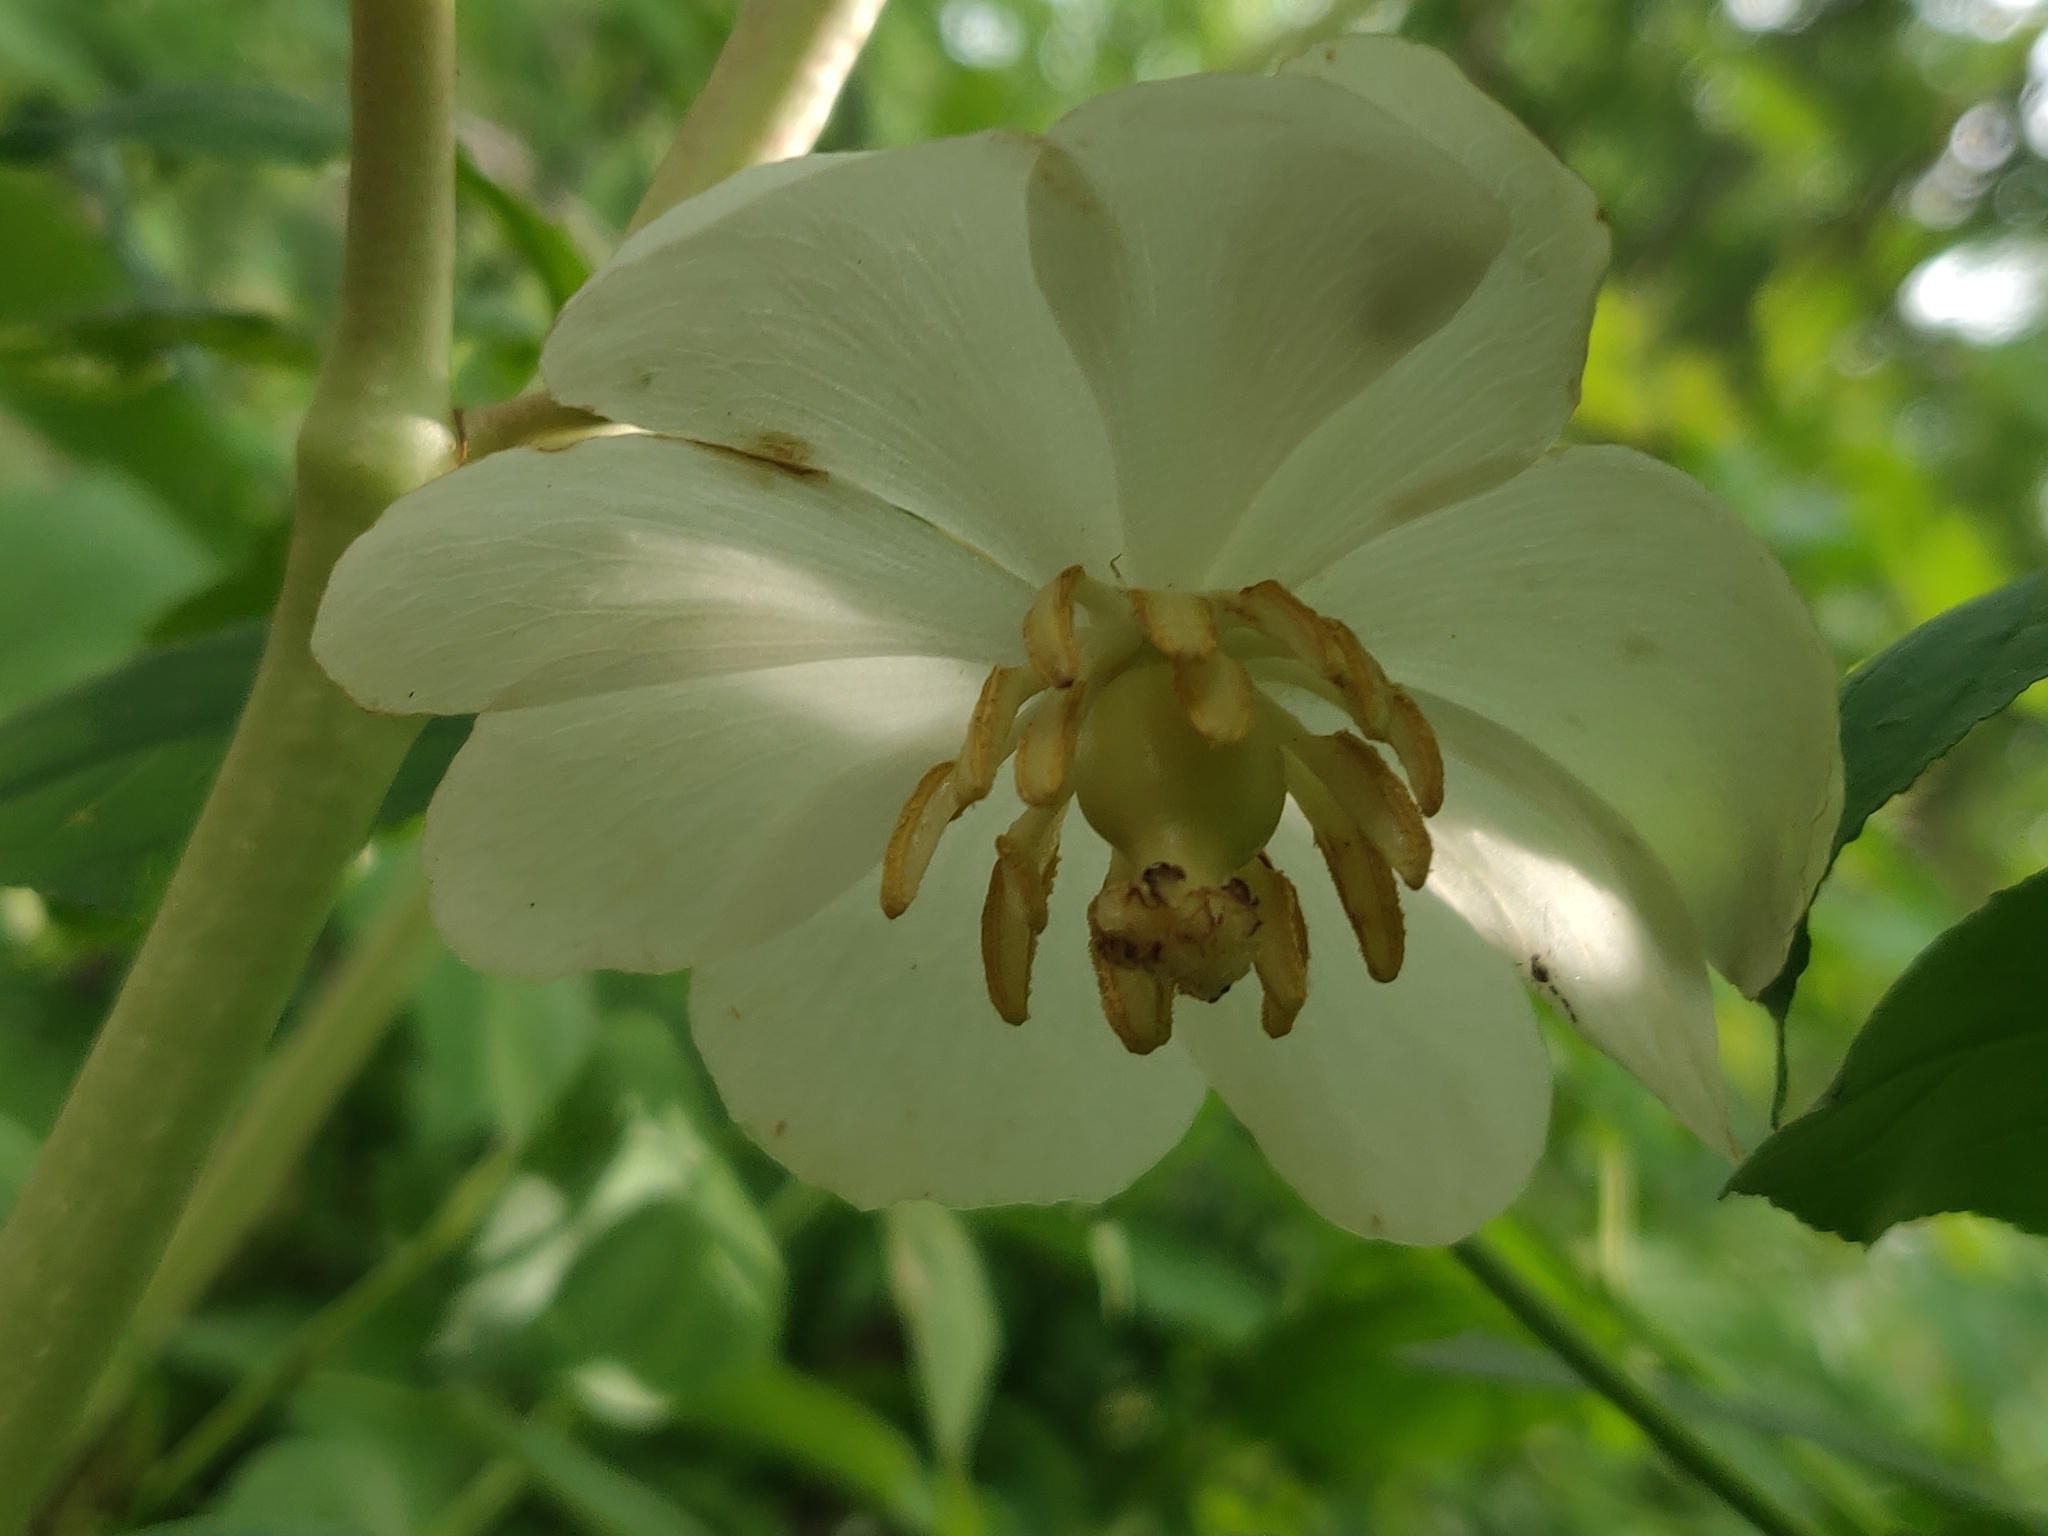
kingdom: Plantae
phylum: Tracheophyta
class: Magnoliopsida
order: Ranunculales
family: Berberidaceae
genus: Podophyllum
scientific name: Podophyllum peltatum
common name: Wild mandrake
